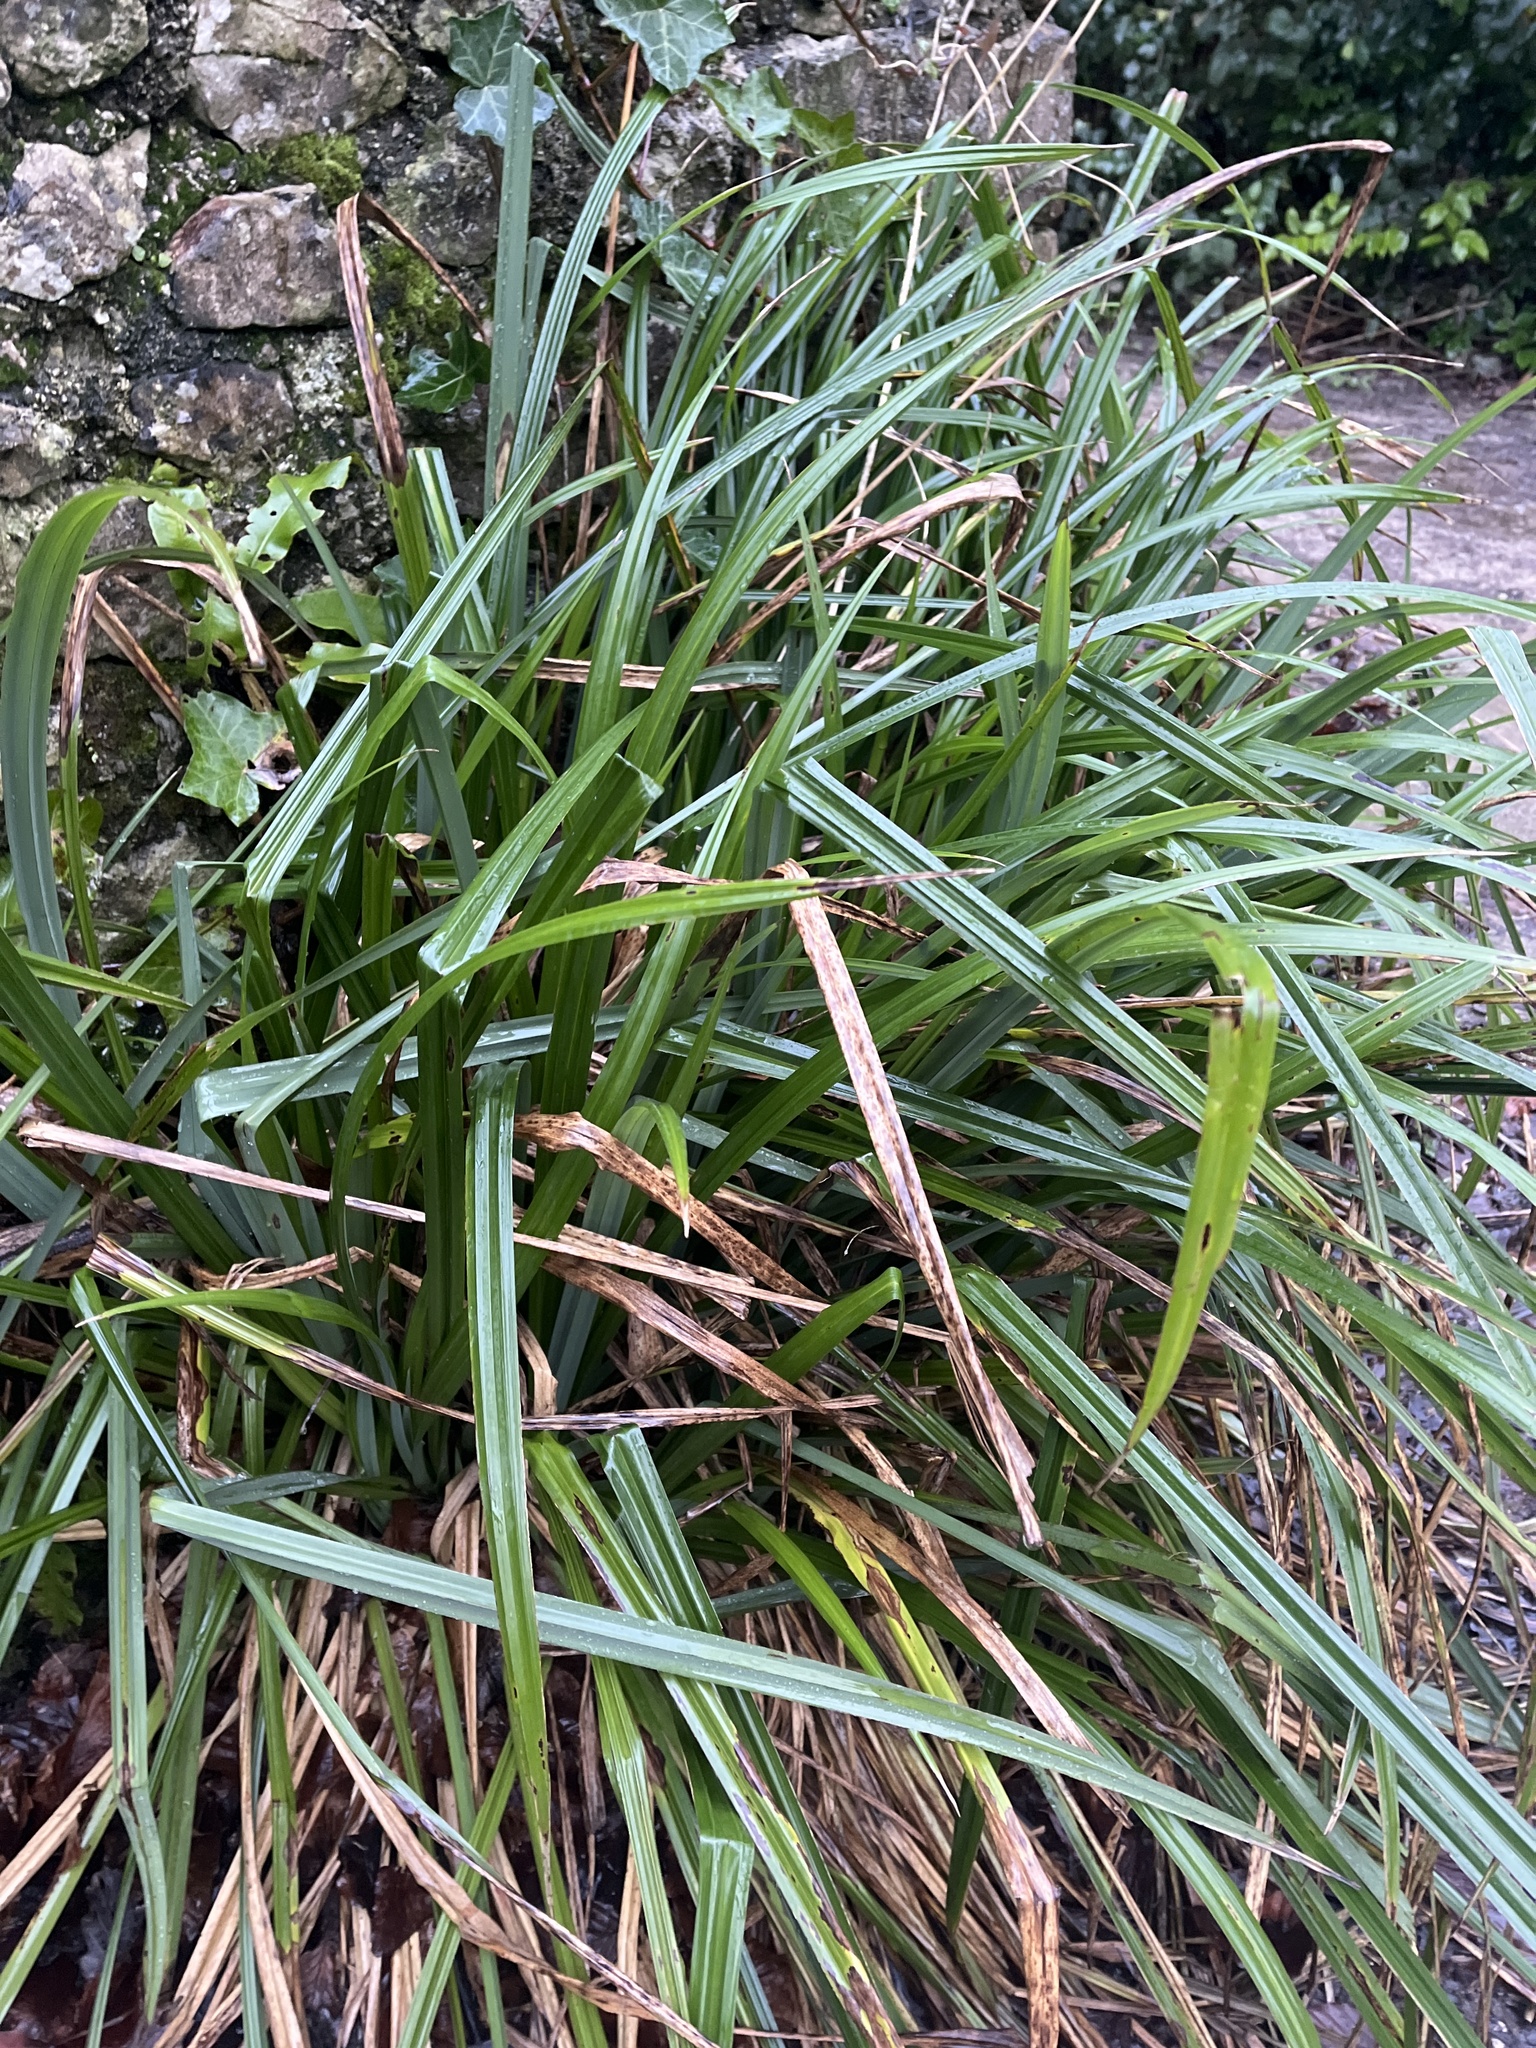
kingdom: Plantae
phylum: Tracheophyta
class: Liliopsida
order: Poales
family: Cyperaceae
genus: Carex
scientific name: Carex pendula
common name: Pendulous sedge
